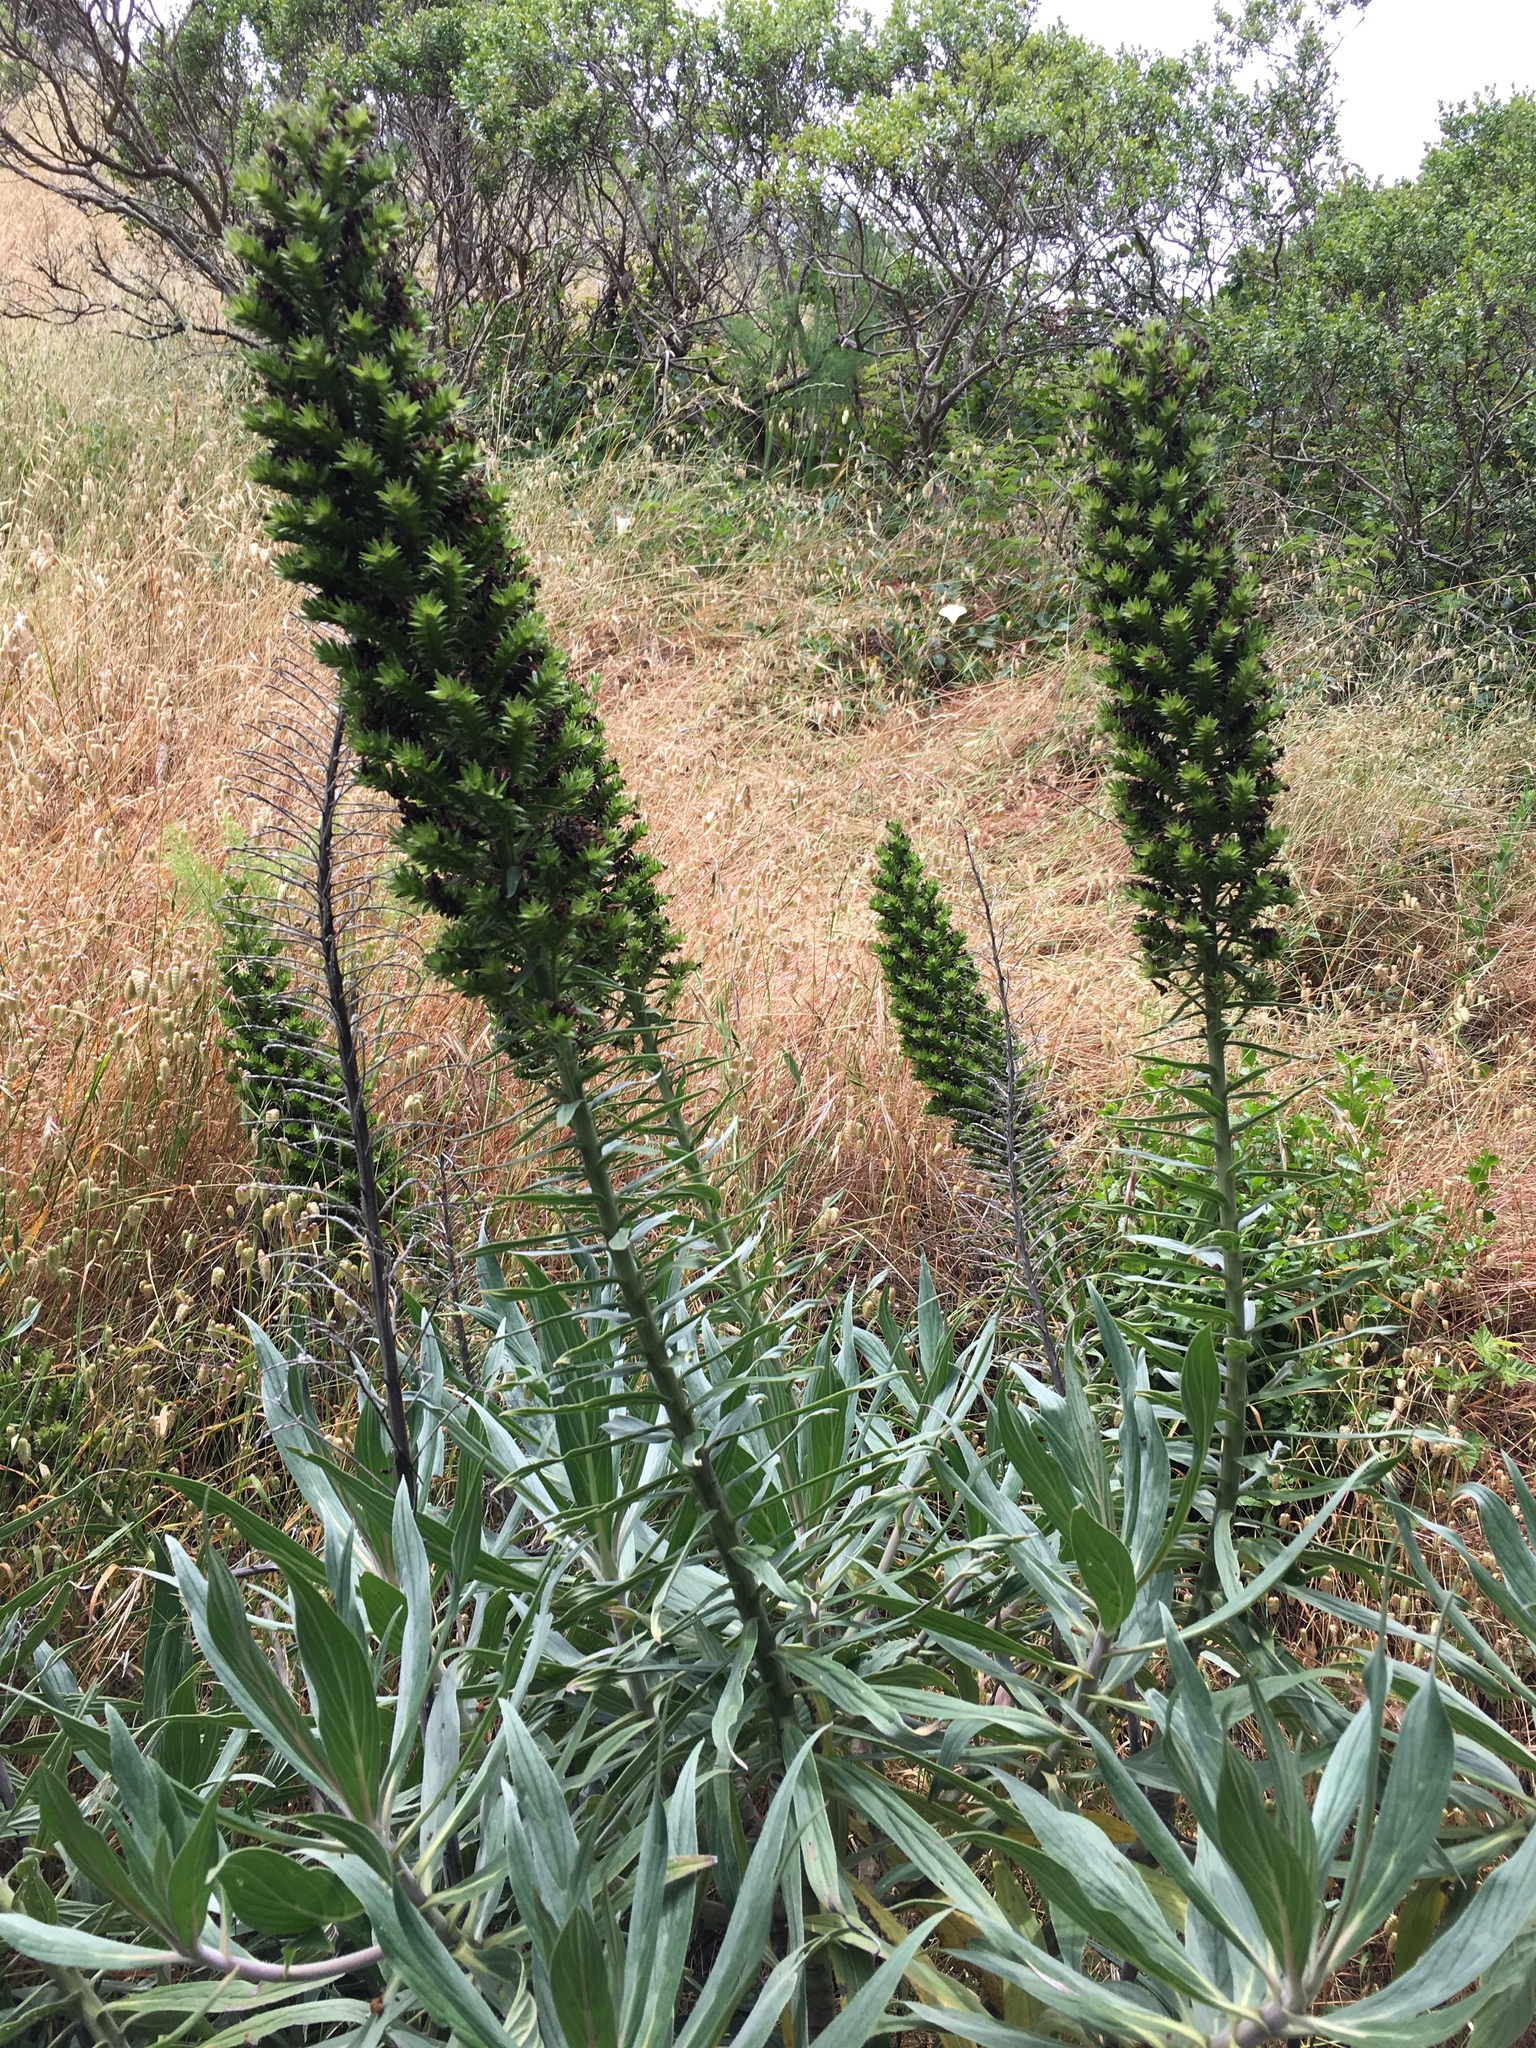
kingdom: Plantae
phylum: Tracheophyta
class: Magnoliopsida
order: Boraginales
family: Boraginaceae
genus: Echium
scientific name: Echium candicans
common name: Pride of madeira
